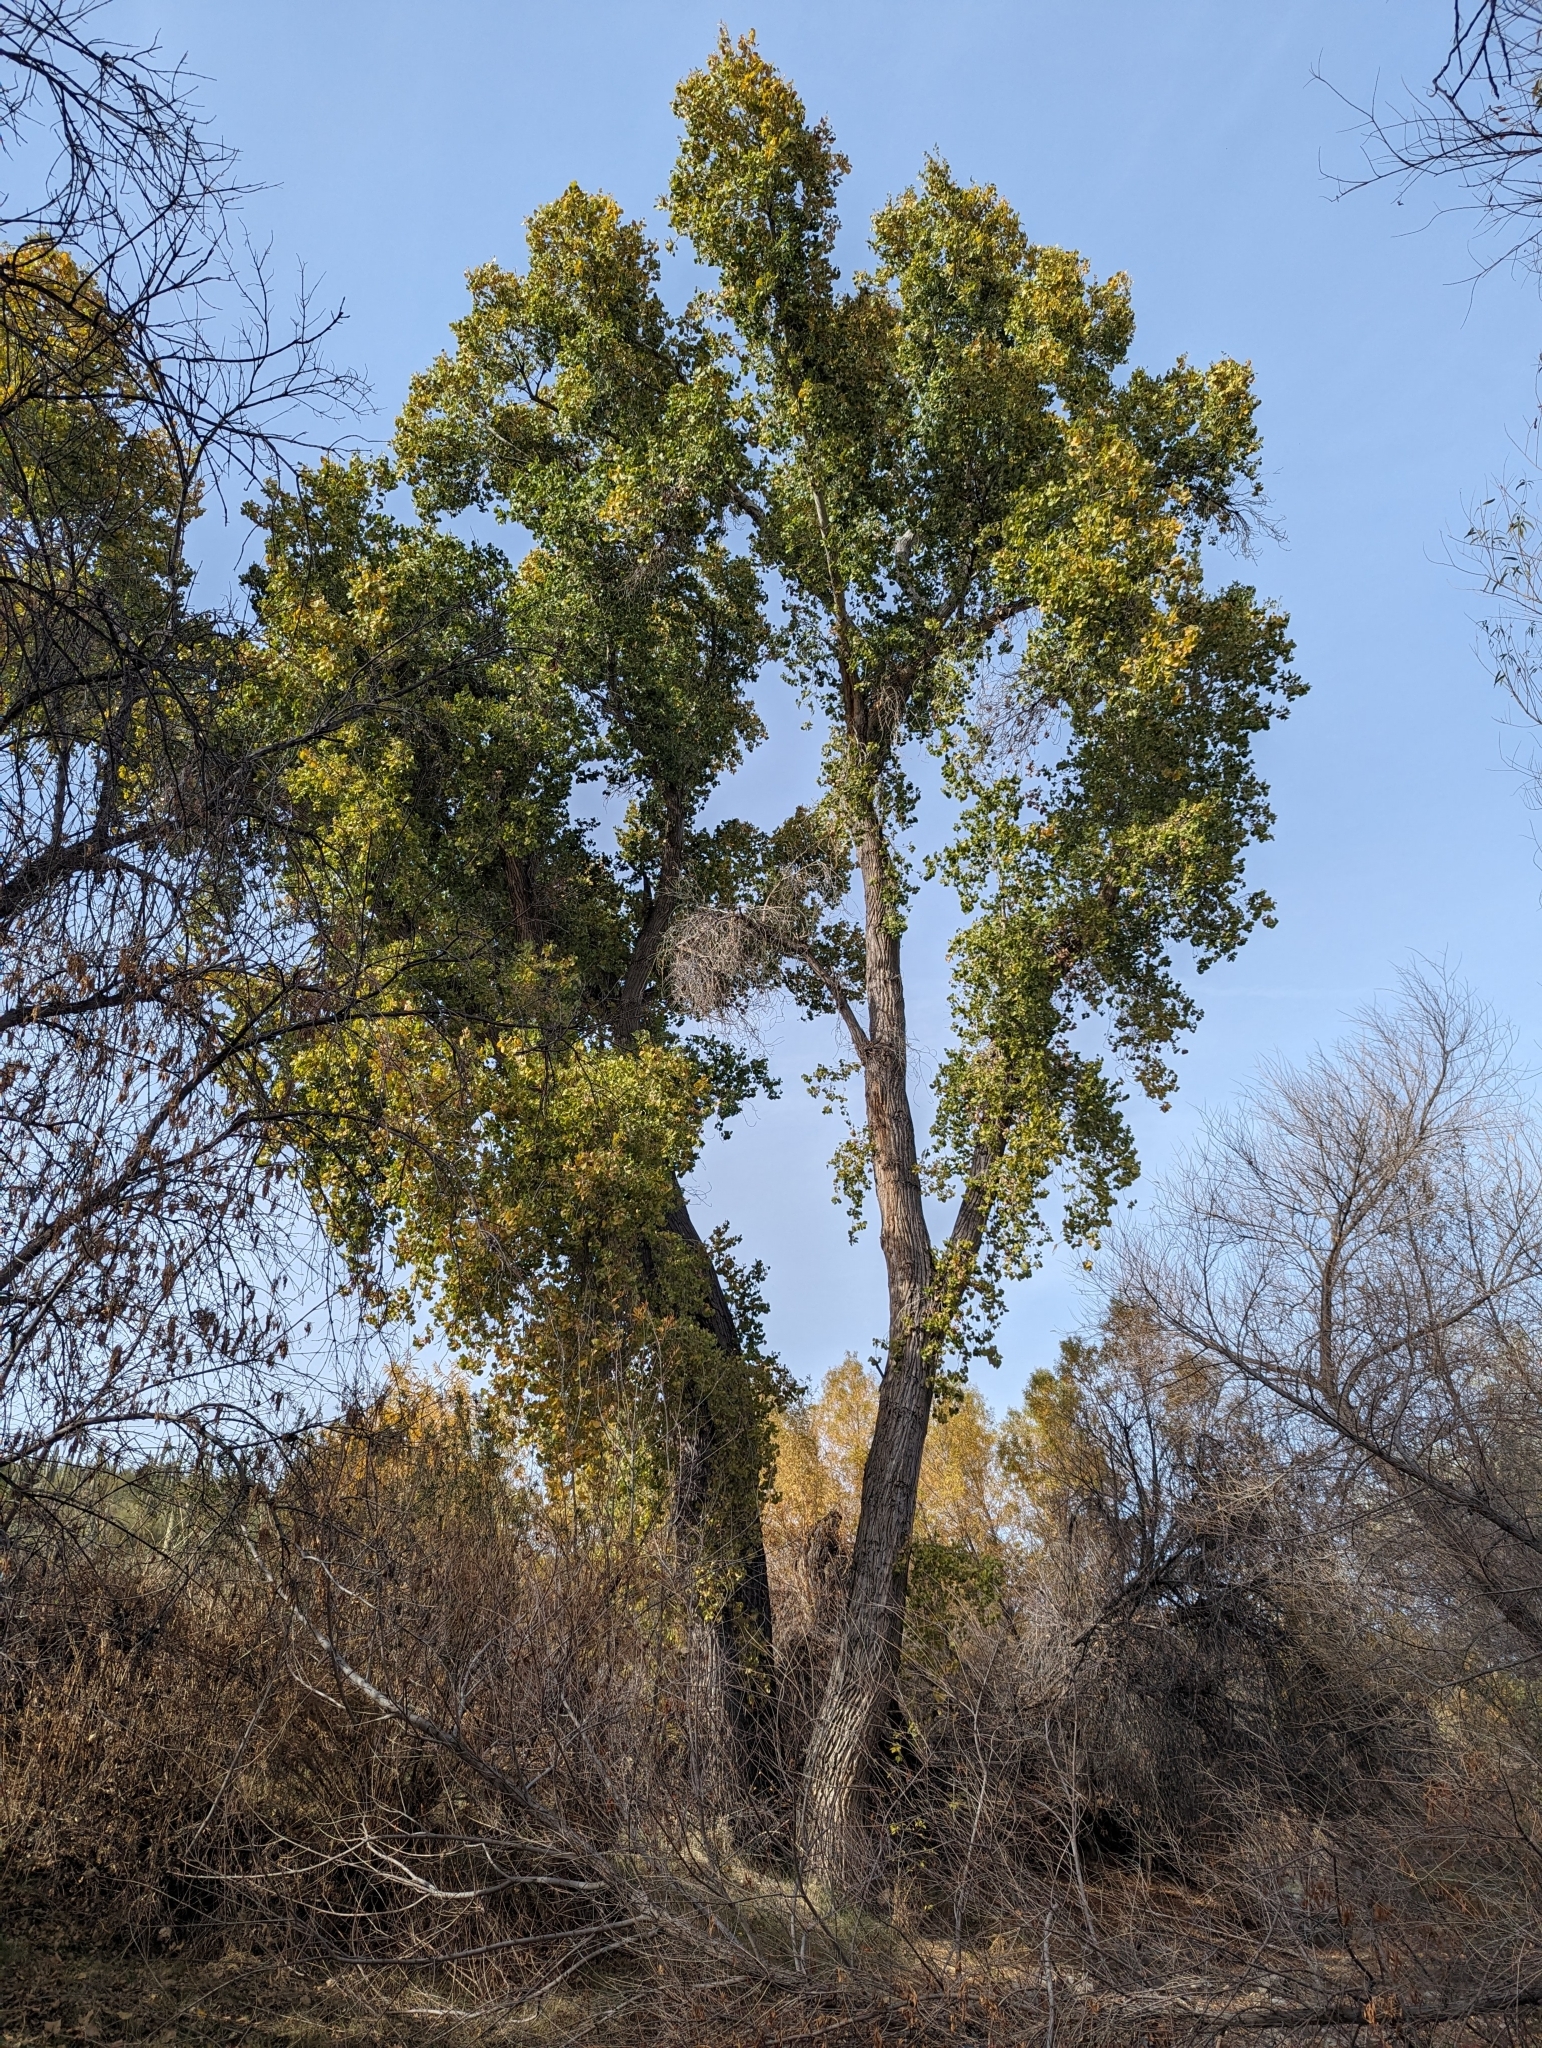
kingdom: Plantae
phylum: Tracheophyta
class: Magnoliopsida
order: Malpighiales
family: Salicaceae
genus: Populus
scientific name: Populus fremontii
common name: Fremont's cottonwood
